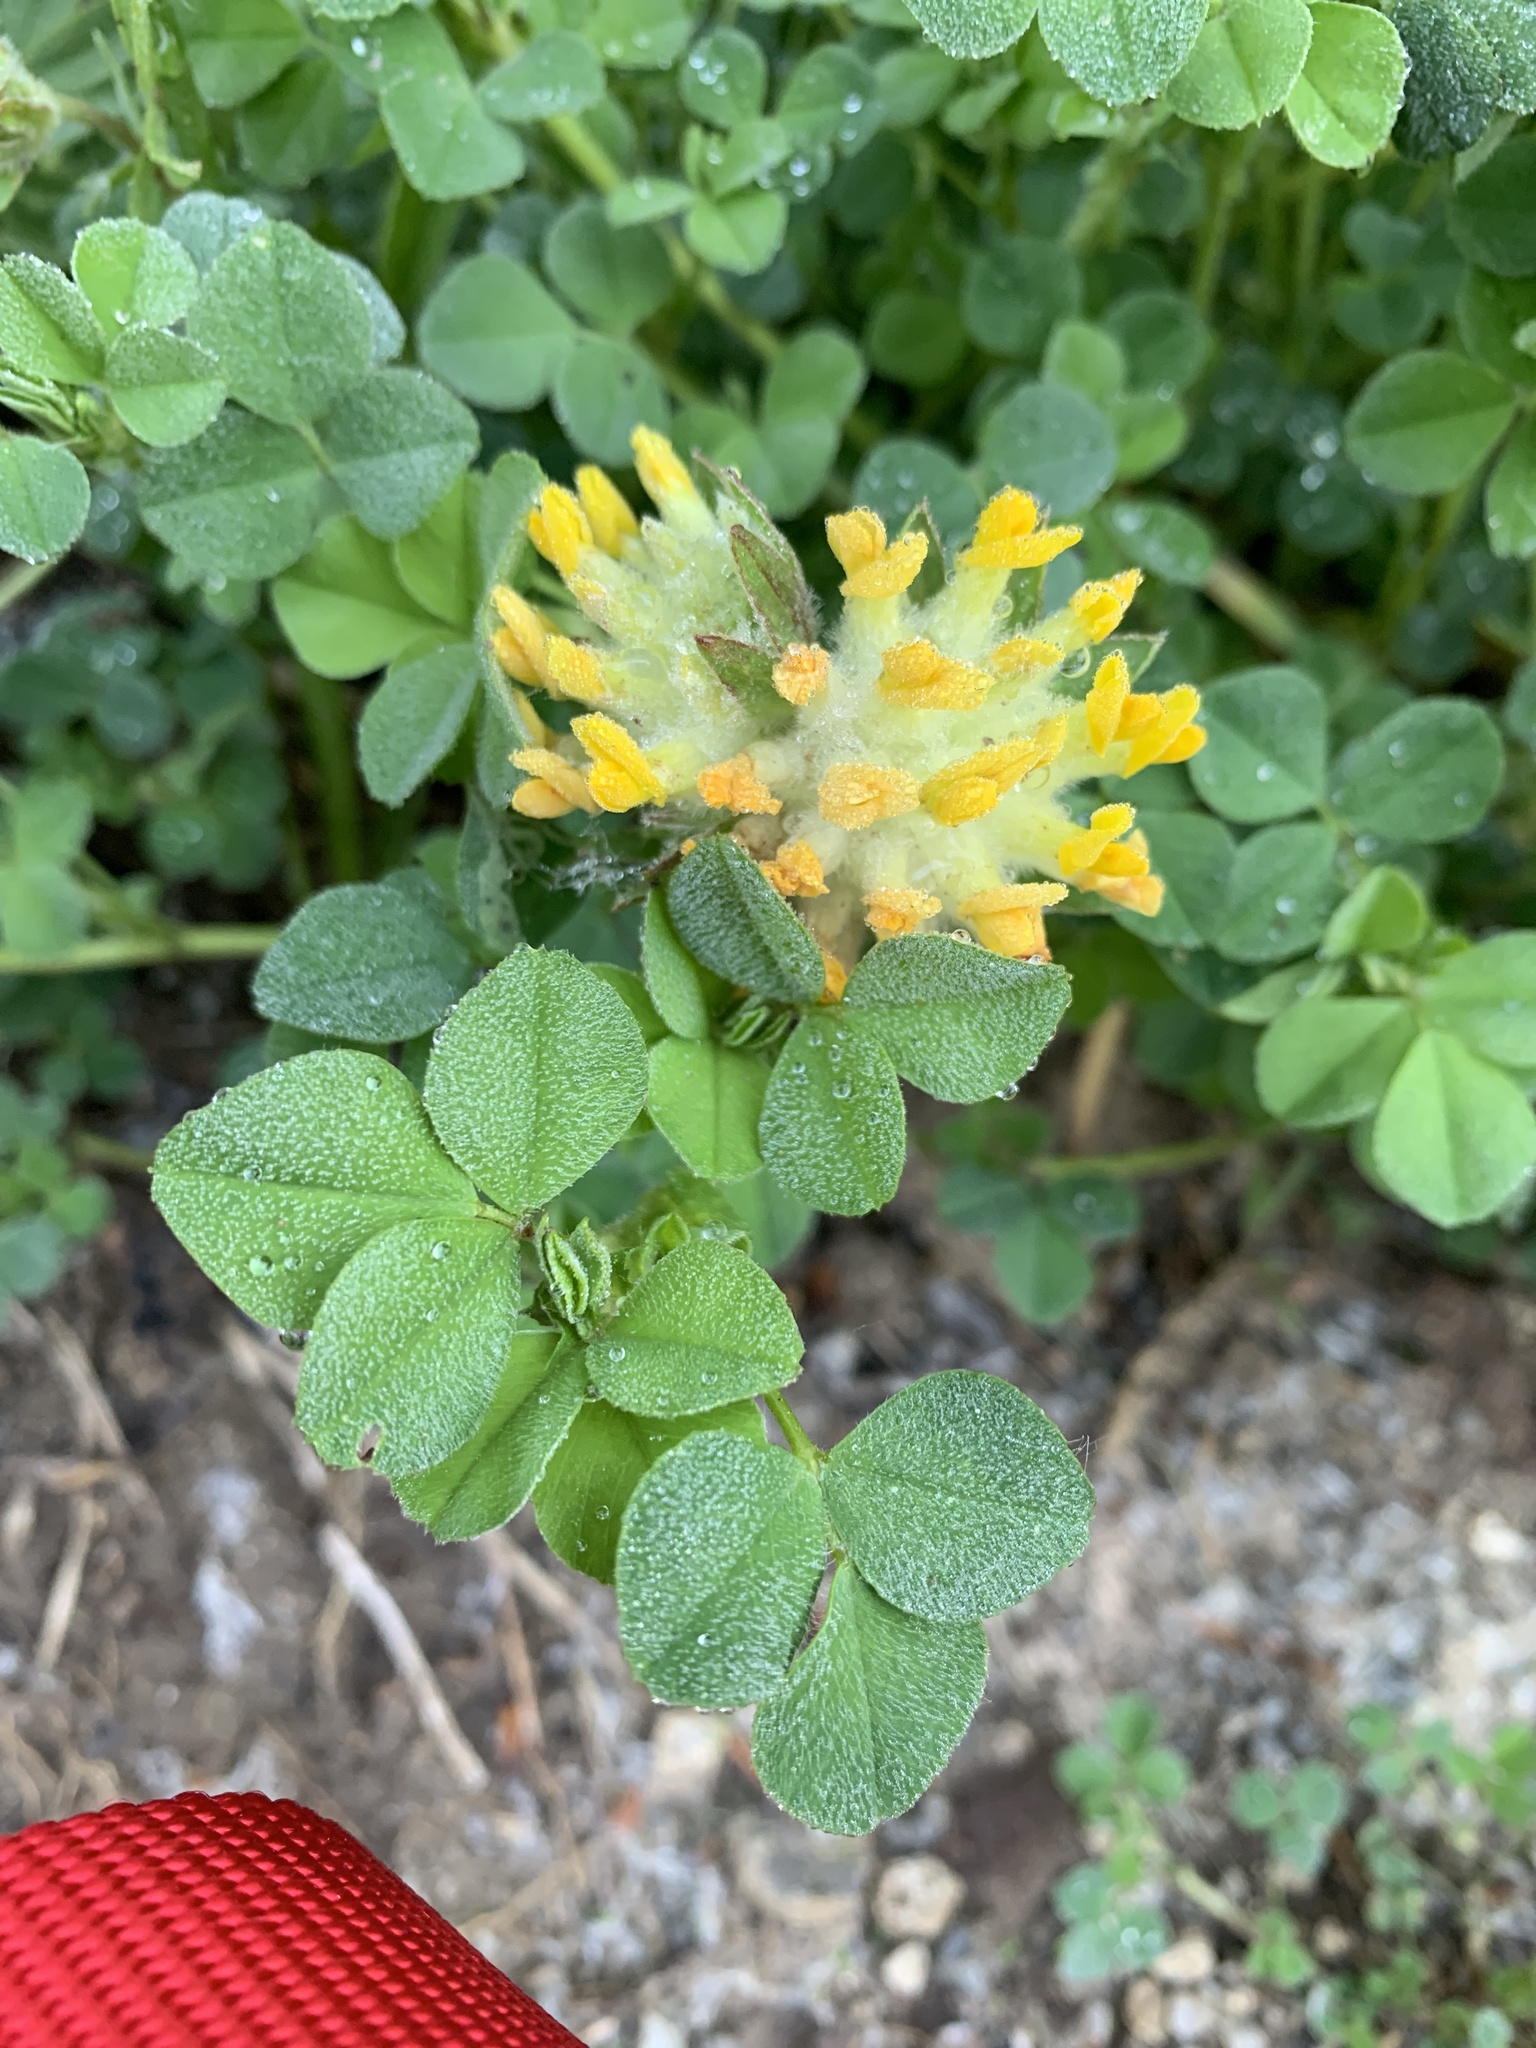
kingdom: Plantae
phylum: Tracheophyta
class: Magnoliopsida
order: Fabales
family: Fabaceae
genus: Anthyllis
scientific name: Anthyllis vulneraria
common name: Kidney vetch
